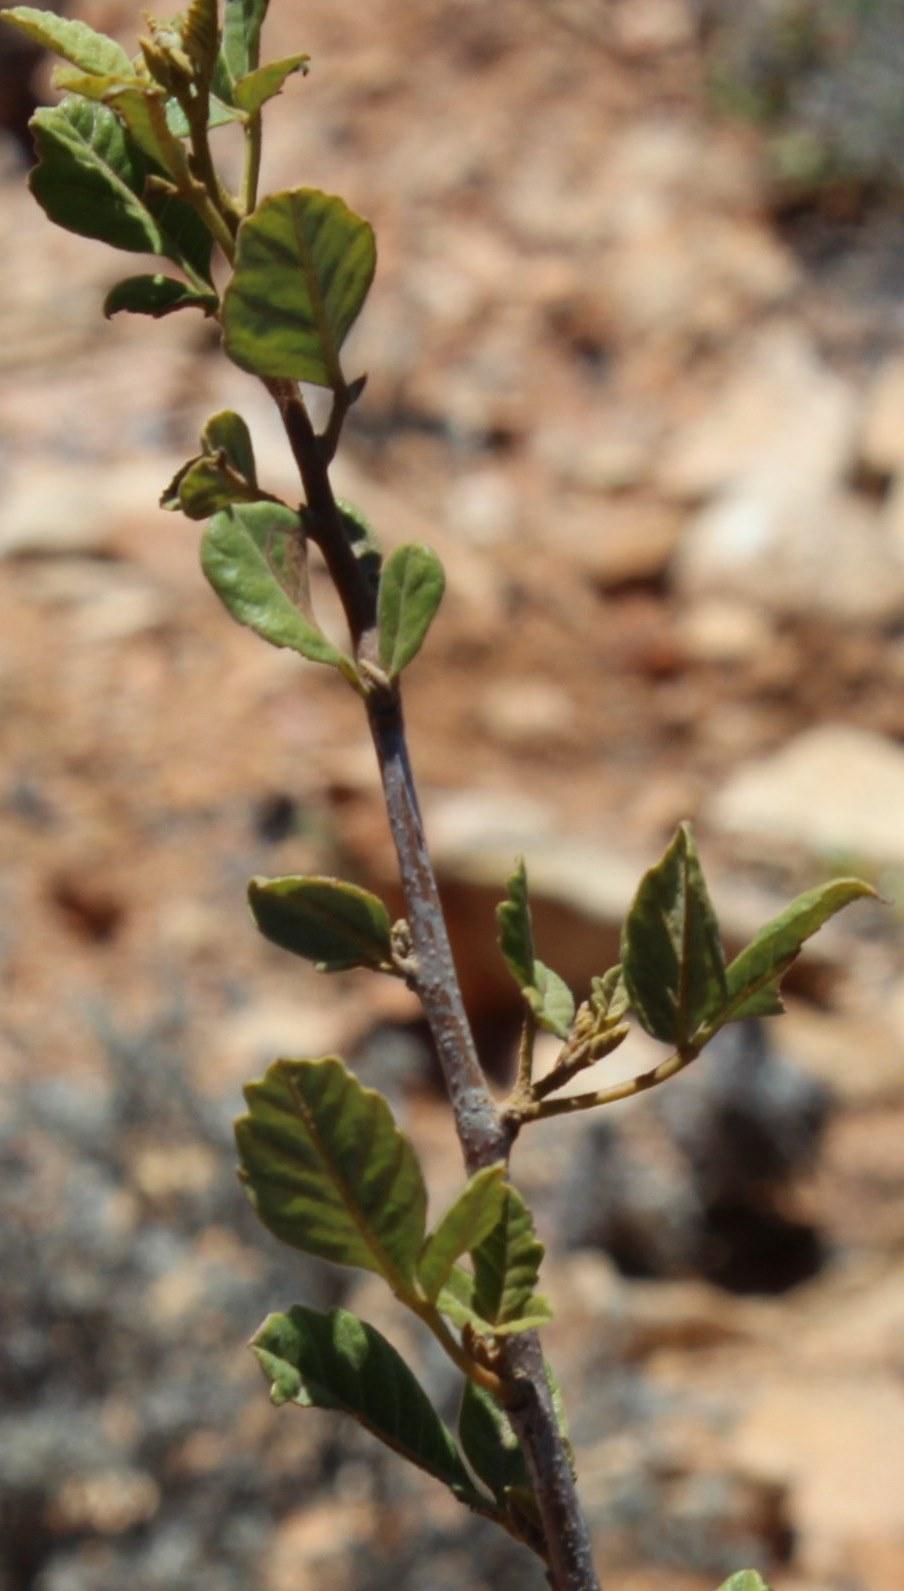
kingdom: Plantae
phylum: Tracheophyta
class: Magnoliopsida
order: Sapindales
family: Anacardiaceae
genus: Searsia
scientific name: Searsia populifolia
